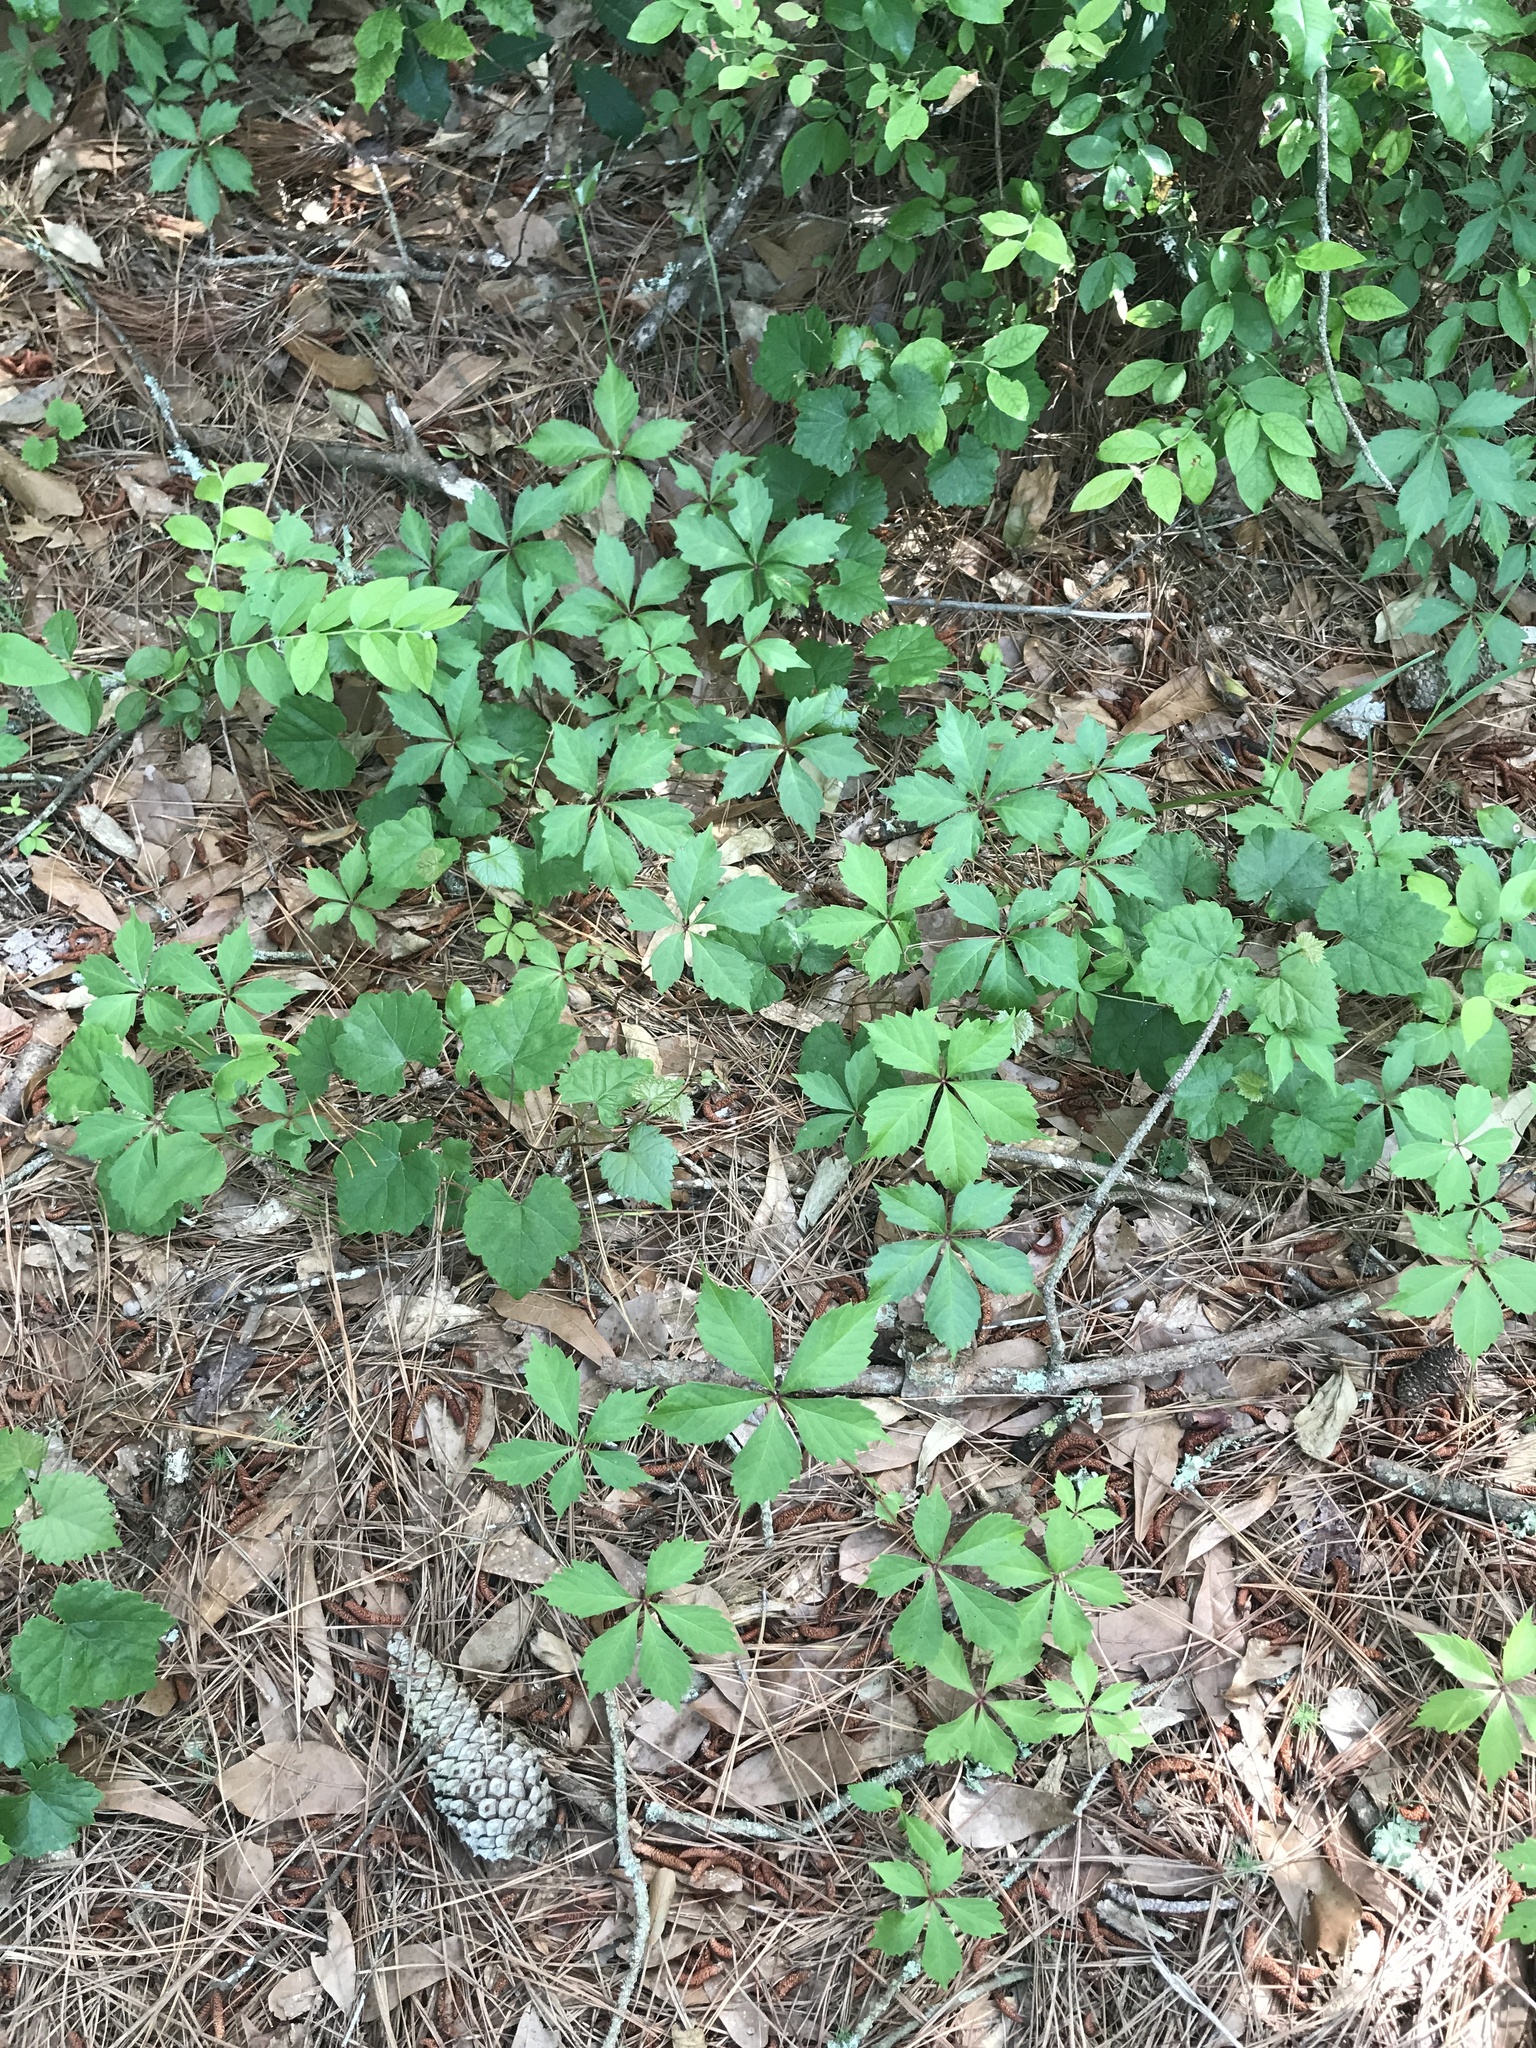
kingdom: Plantae
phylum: Tracheophyta
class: Magnoliopsida
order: Vitales
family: Vitaceae
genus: Parthenocissus
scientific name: Parthenocissus quinquefolia
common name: Virginia-creeper
